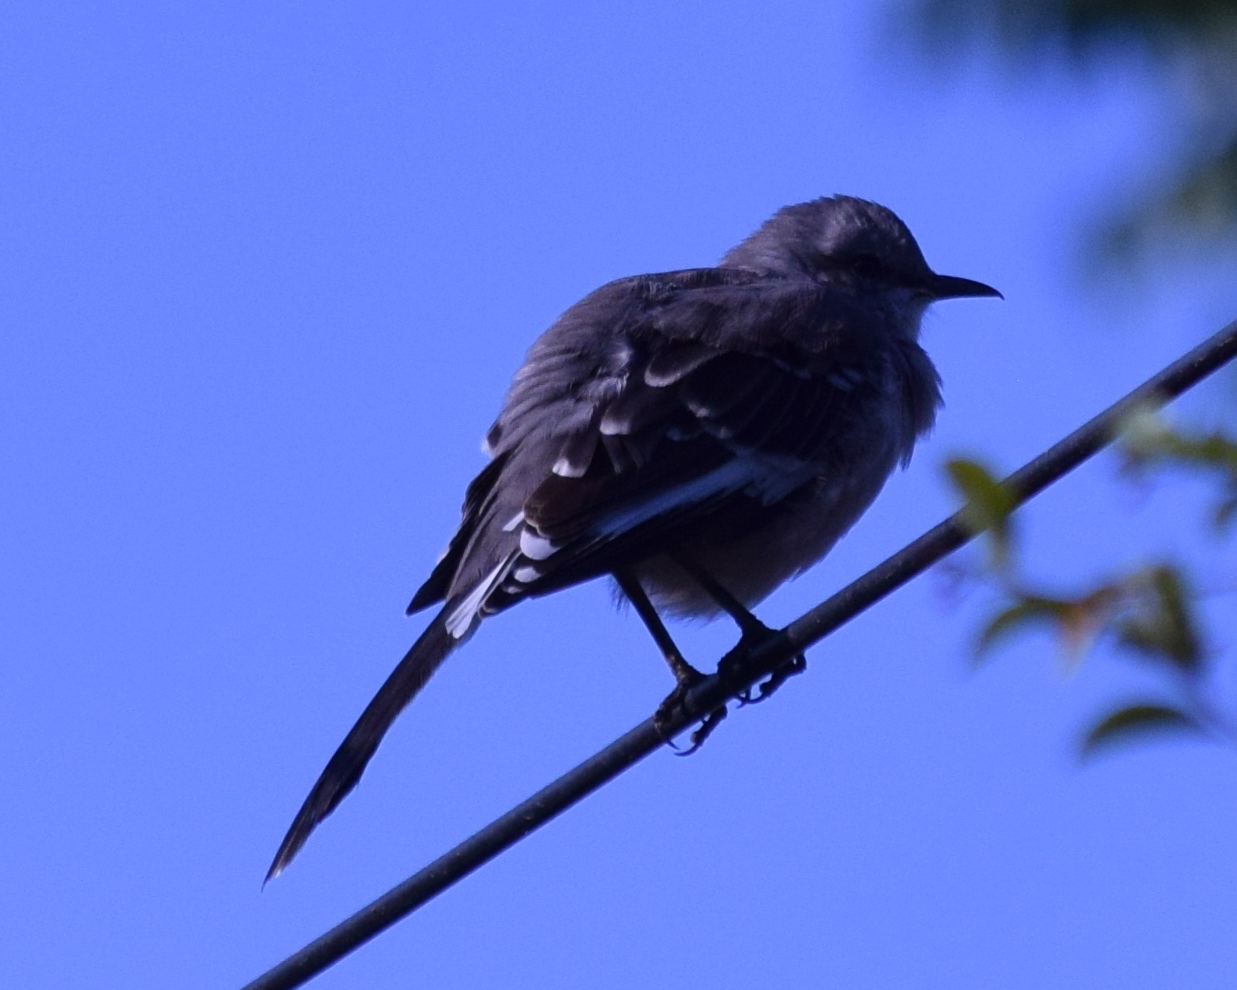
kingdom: Animalia
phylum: Chordata
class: Aves
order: Passeriformes
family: Mimidae
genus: Mimus
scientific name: Mimus polyglottos
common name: Northern mockingbird
